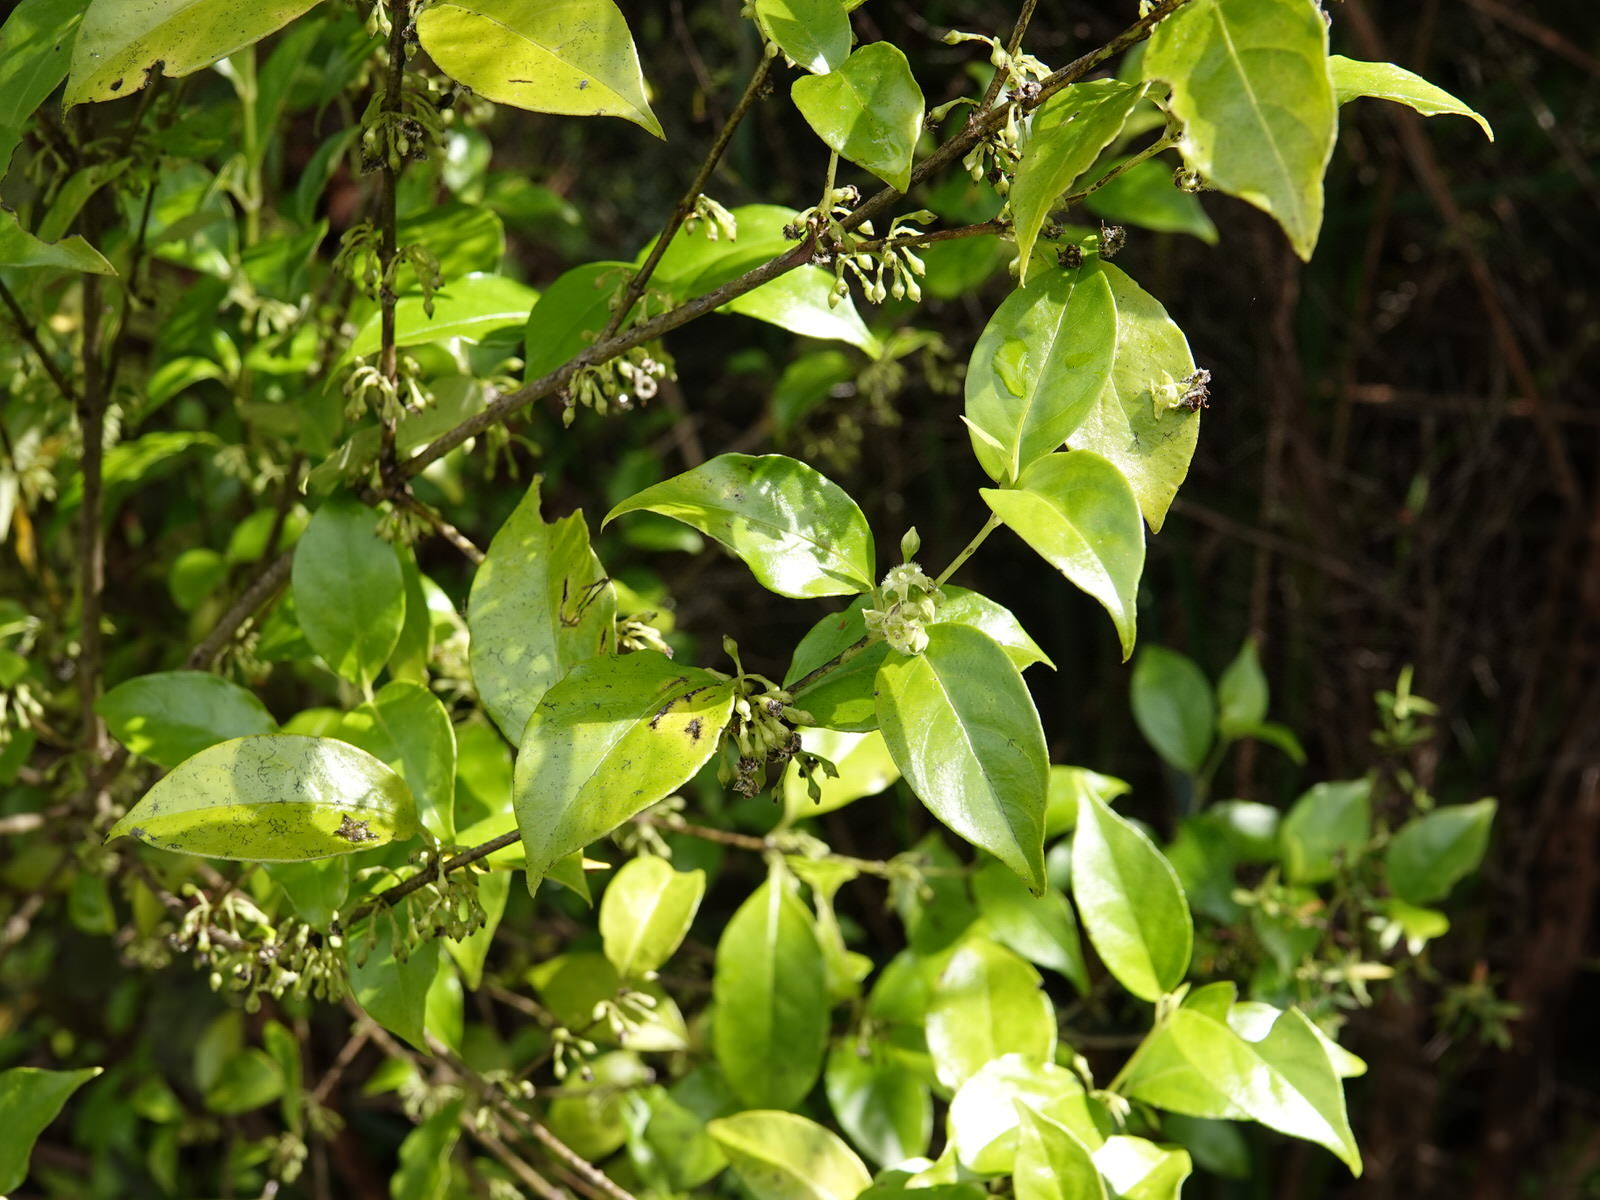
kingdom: Plantae
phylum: Tracheophyta
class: Magnoliopsida
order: Gentianales
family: Loganiaceae
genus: Geniostoma
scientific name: Geniostoma ligustrifolium
